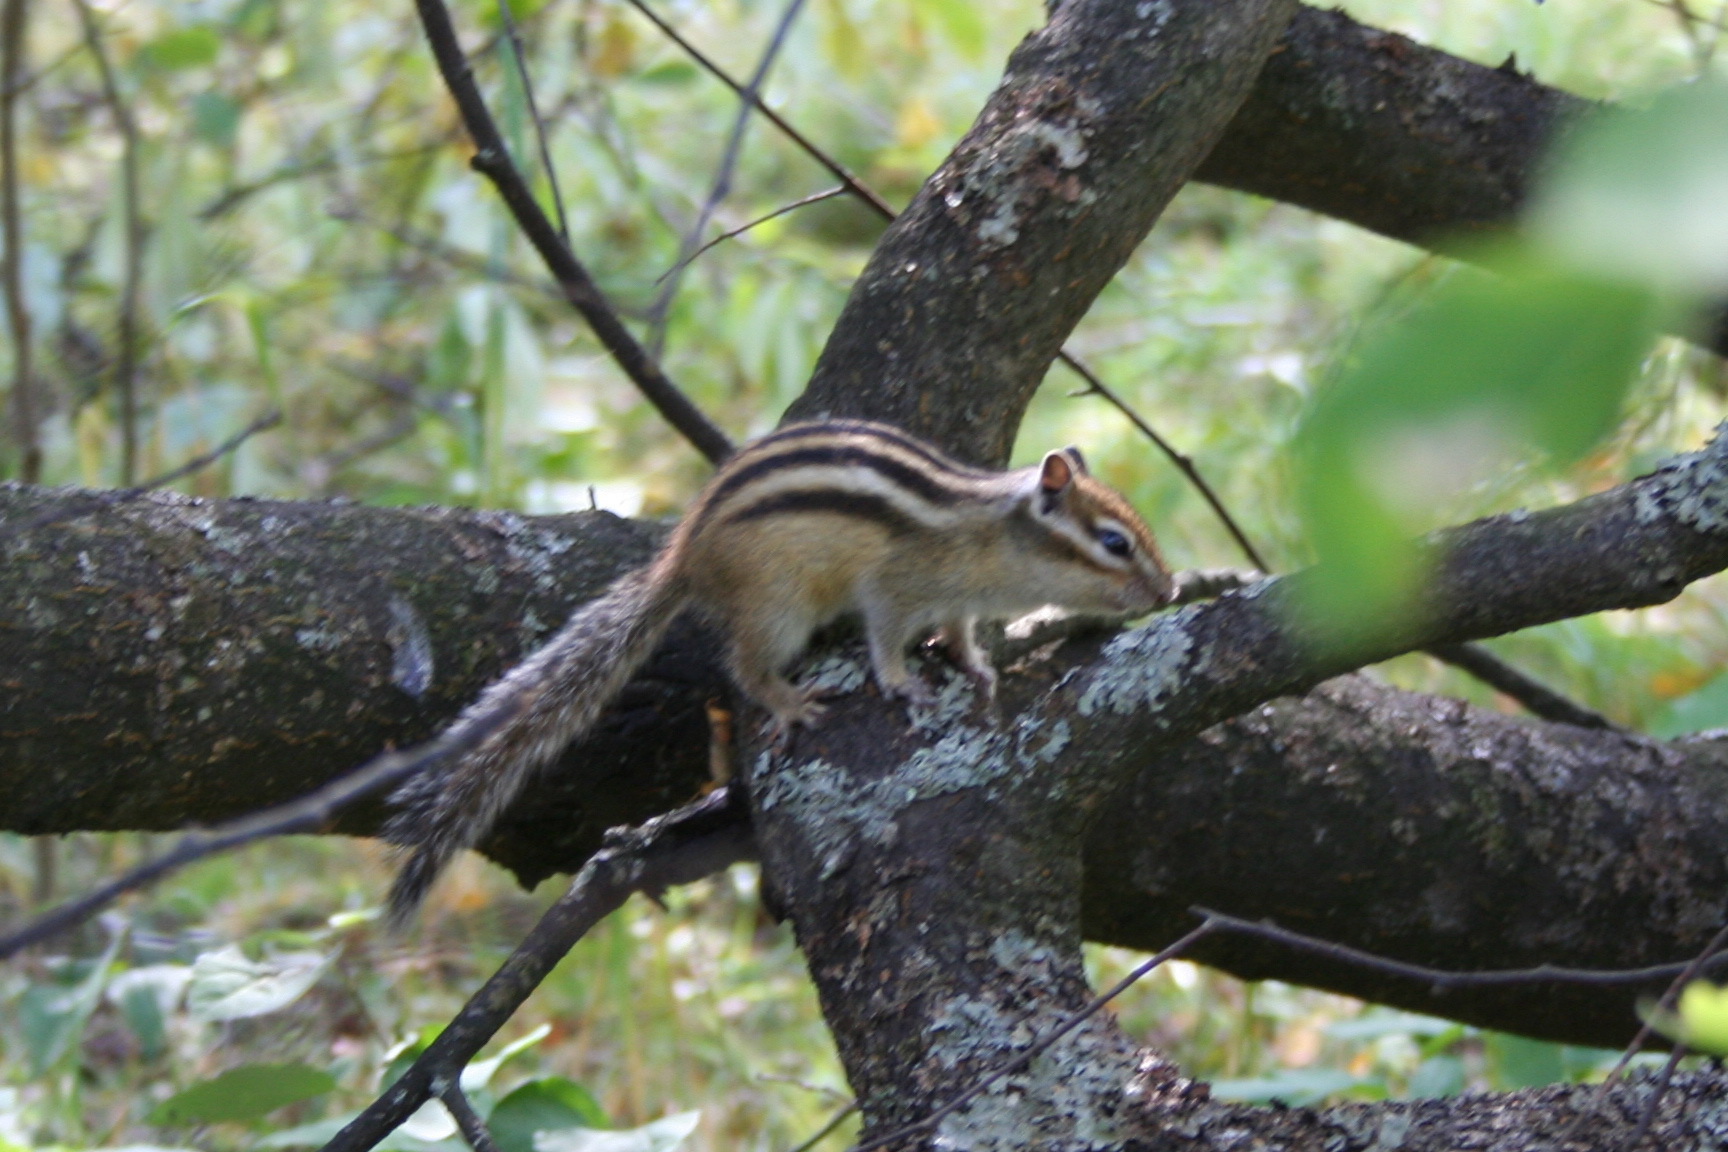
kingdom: Animalia
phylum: Chordata
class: Mammalia
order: Rodentia
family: Sciuridae
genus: Tamias
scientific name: Tamias sibiricus
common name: Siberian chipmunk
